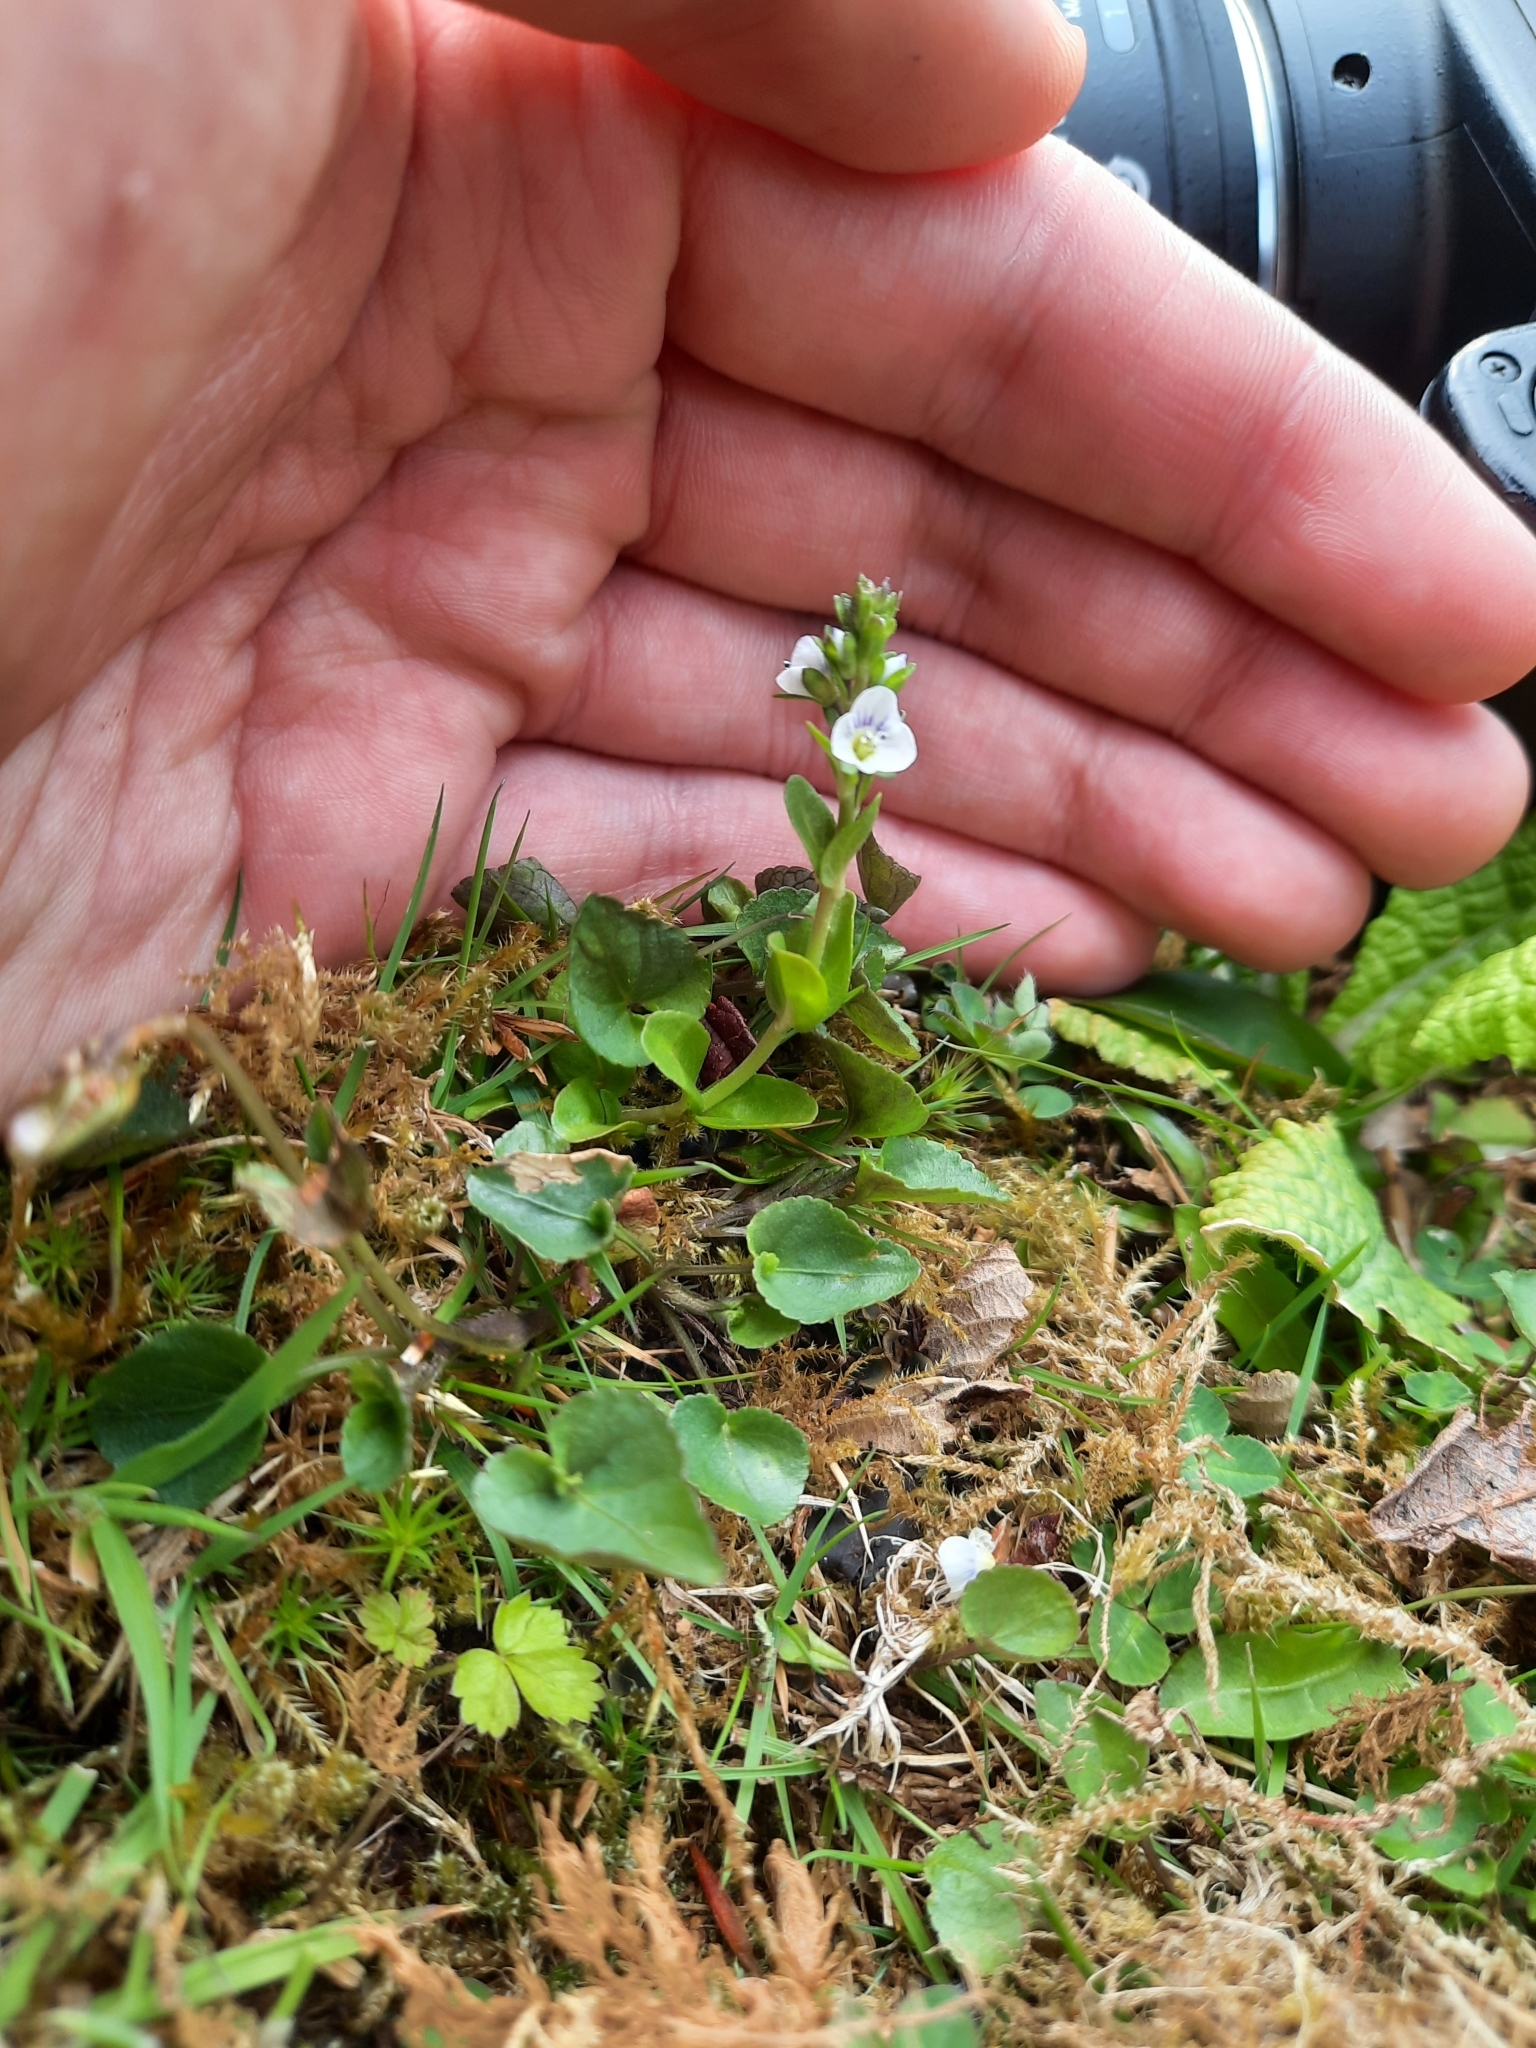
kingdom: Plantae
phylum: Tracheophyta
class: Magnoliopsida
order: Lamiales
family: Plantaginaceae
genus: Veronica
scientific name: Veronica serpyllifolia
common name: Thyme-leaved speedwell
